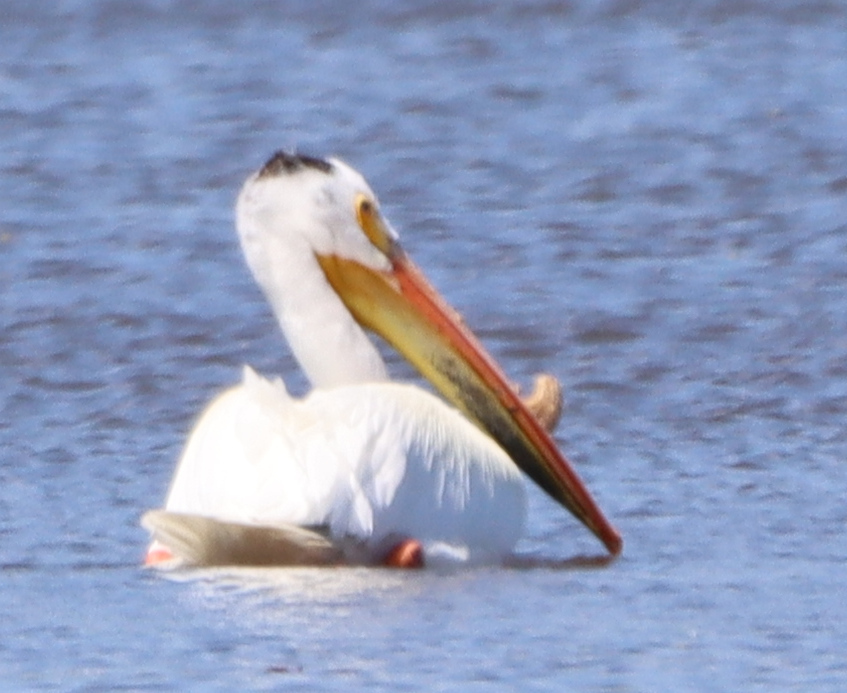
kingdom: Animalia
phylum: Chordata
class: Aves
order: Pelecaniformes
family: Pelecanidae
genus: Pelecanus
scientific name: Pelecanus erythrorhynchos
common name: American white pelican
